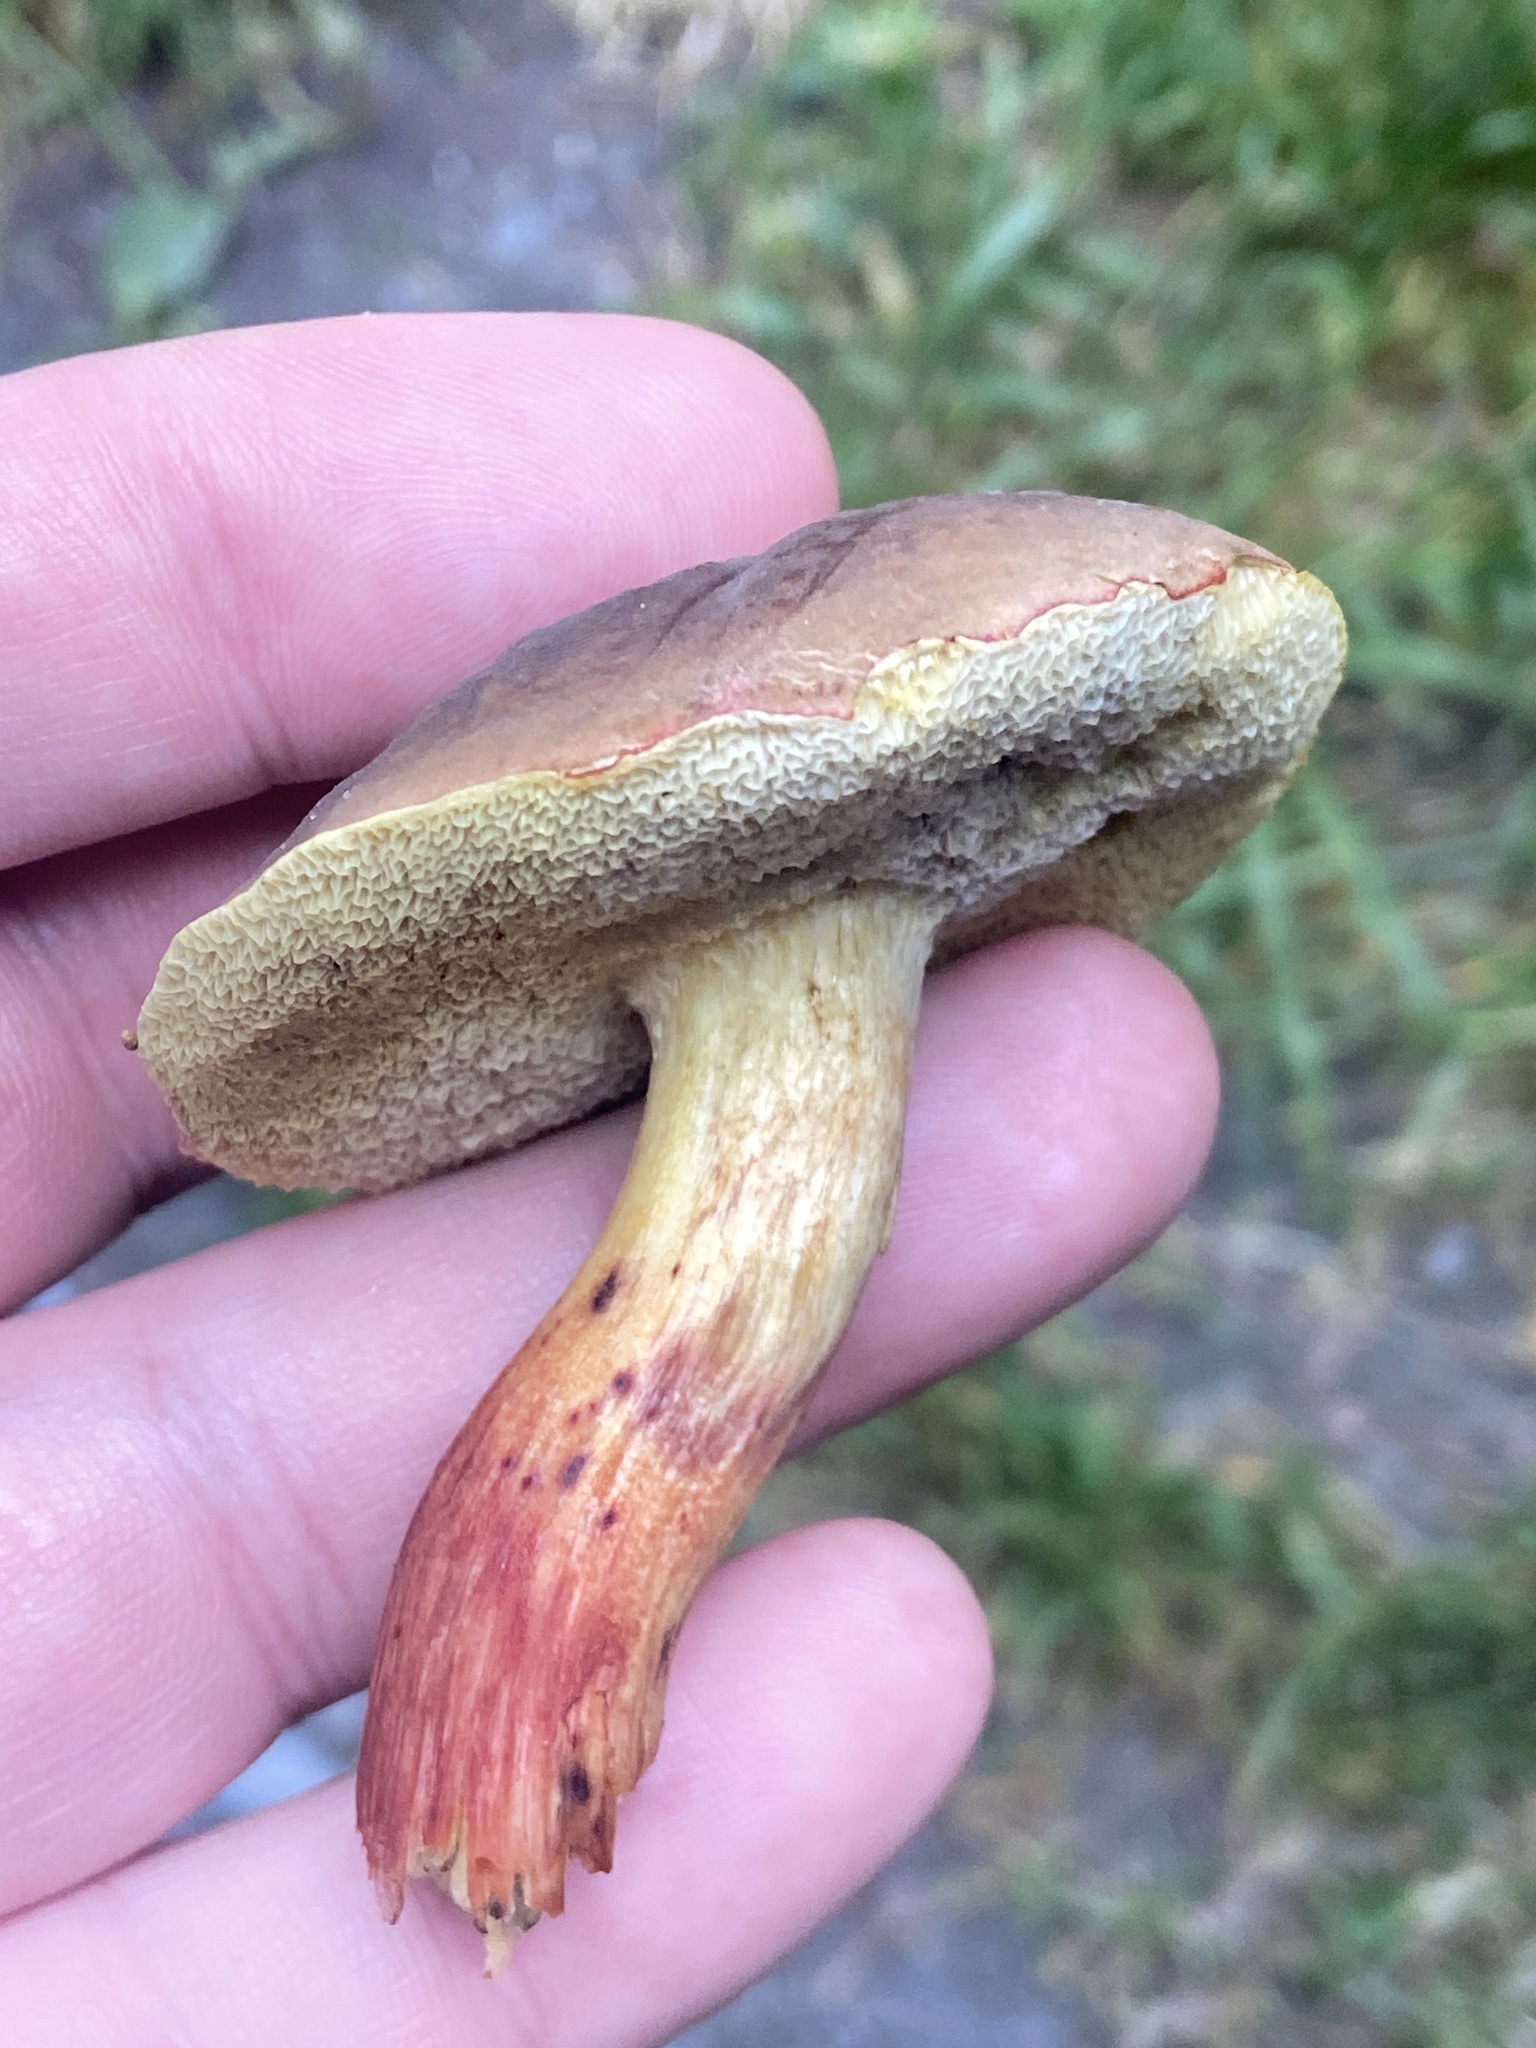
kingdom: Fungi
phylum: Basidiomycota
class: Agaricomycetes
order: Boletales
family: Boletaceae
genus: Xerocomellus
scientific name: Xerocomellus chrysenteron
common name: Red-cracking bolete
